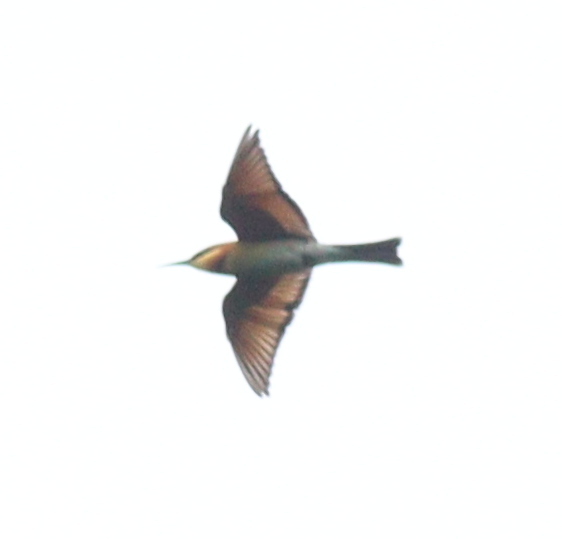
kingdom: Animalia
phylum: Chordata
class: Aves
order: Coraciiformes
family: Meropidae
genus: Merops
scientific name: Merops leschenaulti
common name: Chestnut-headed bee-eater
